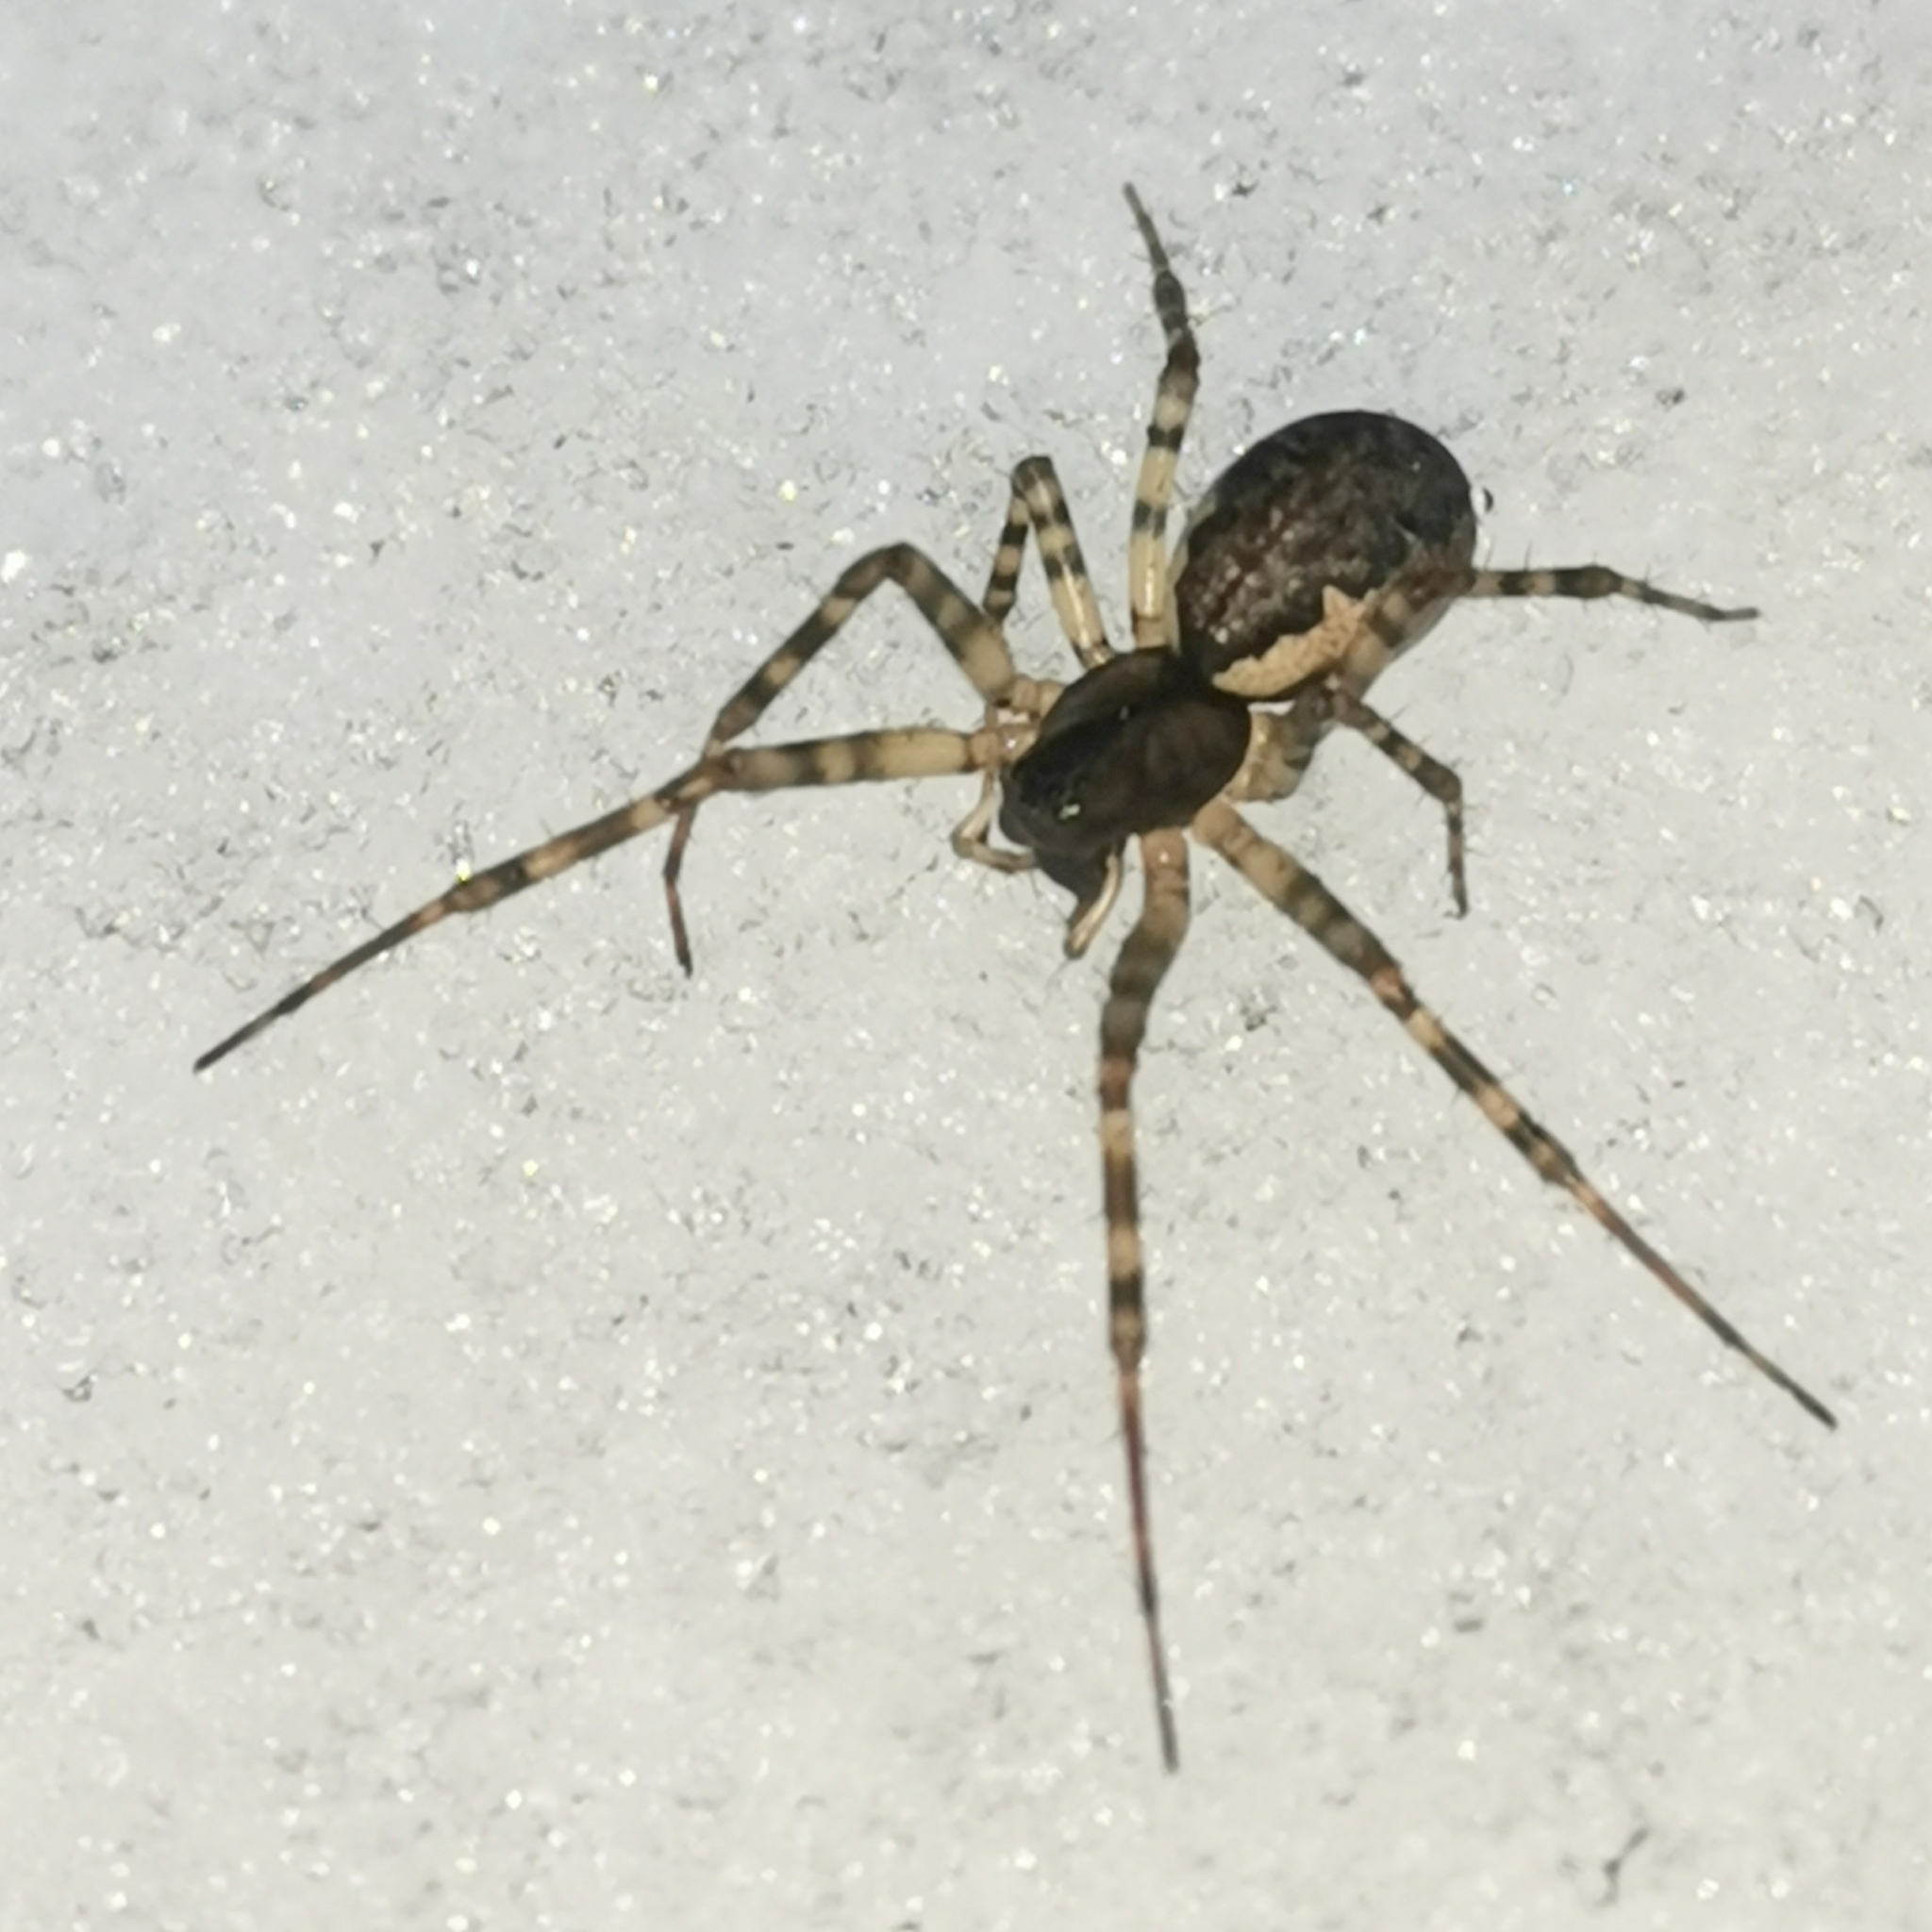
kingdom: Animalia
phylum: Arthropoda
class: Arachnida
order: Araneae
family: Linyphiidae
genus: Neriene
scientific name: Neriene montana
